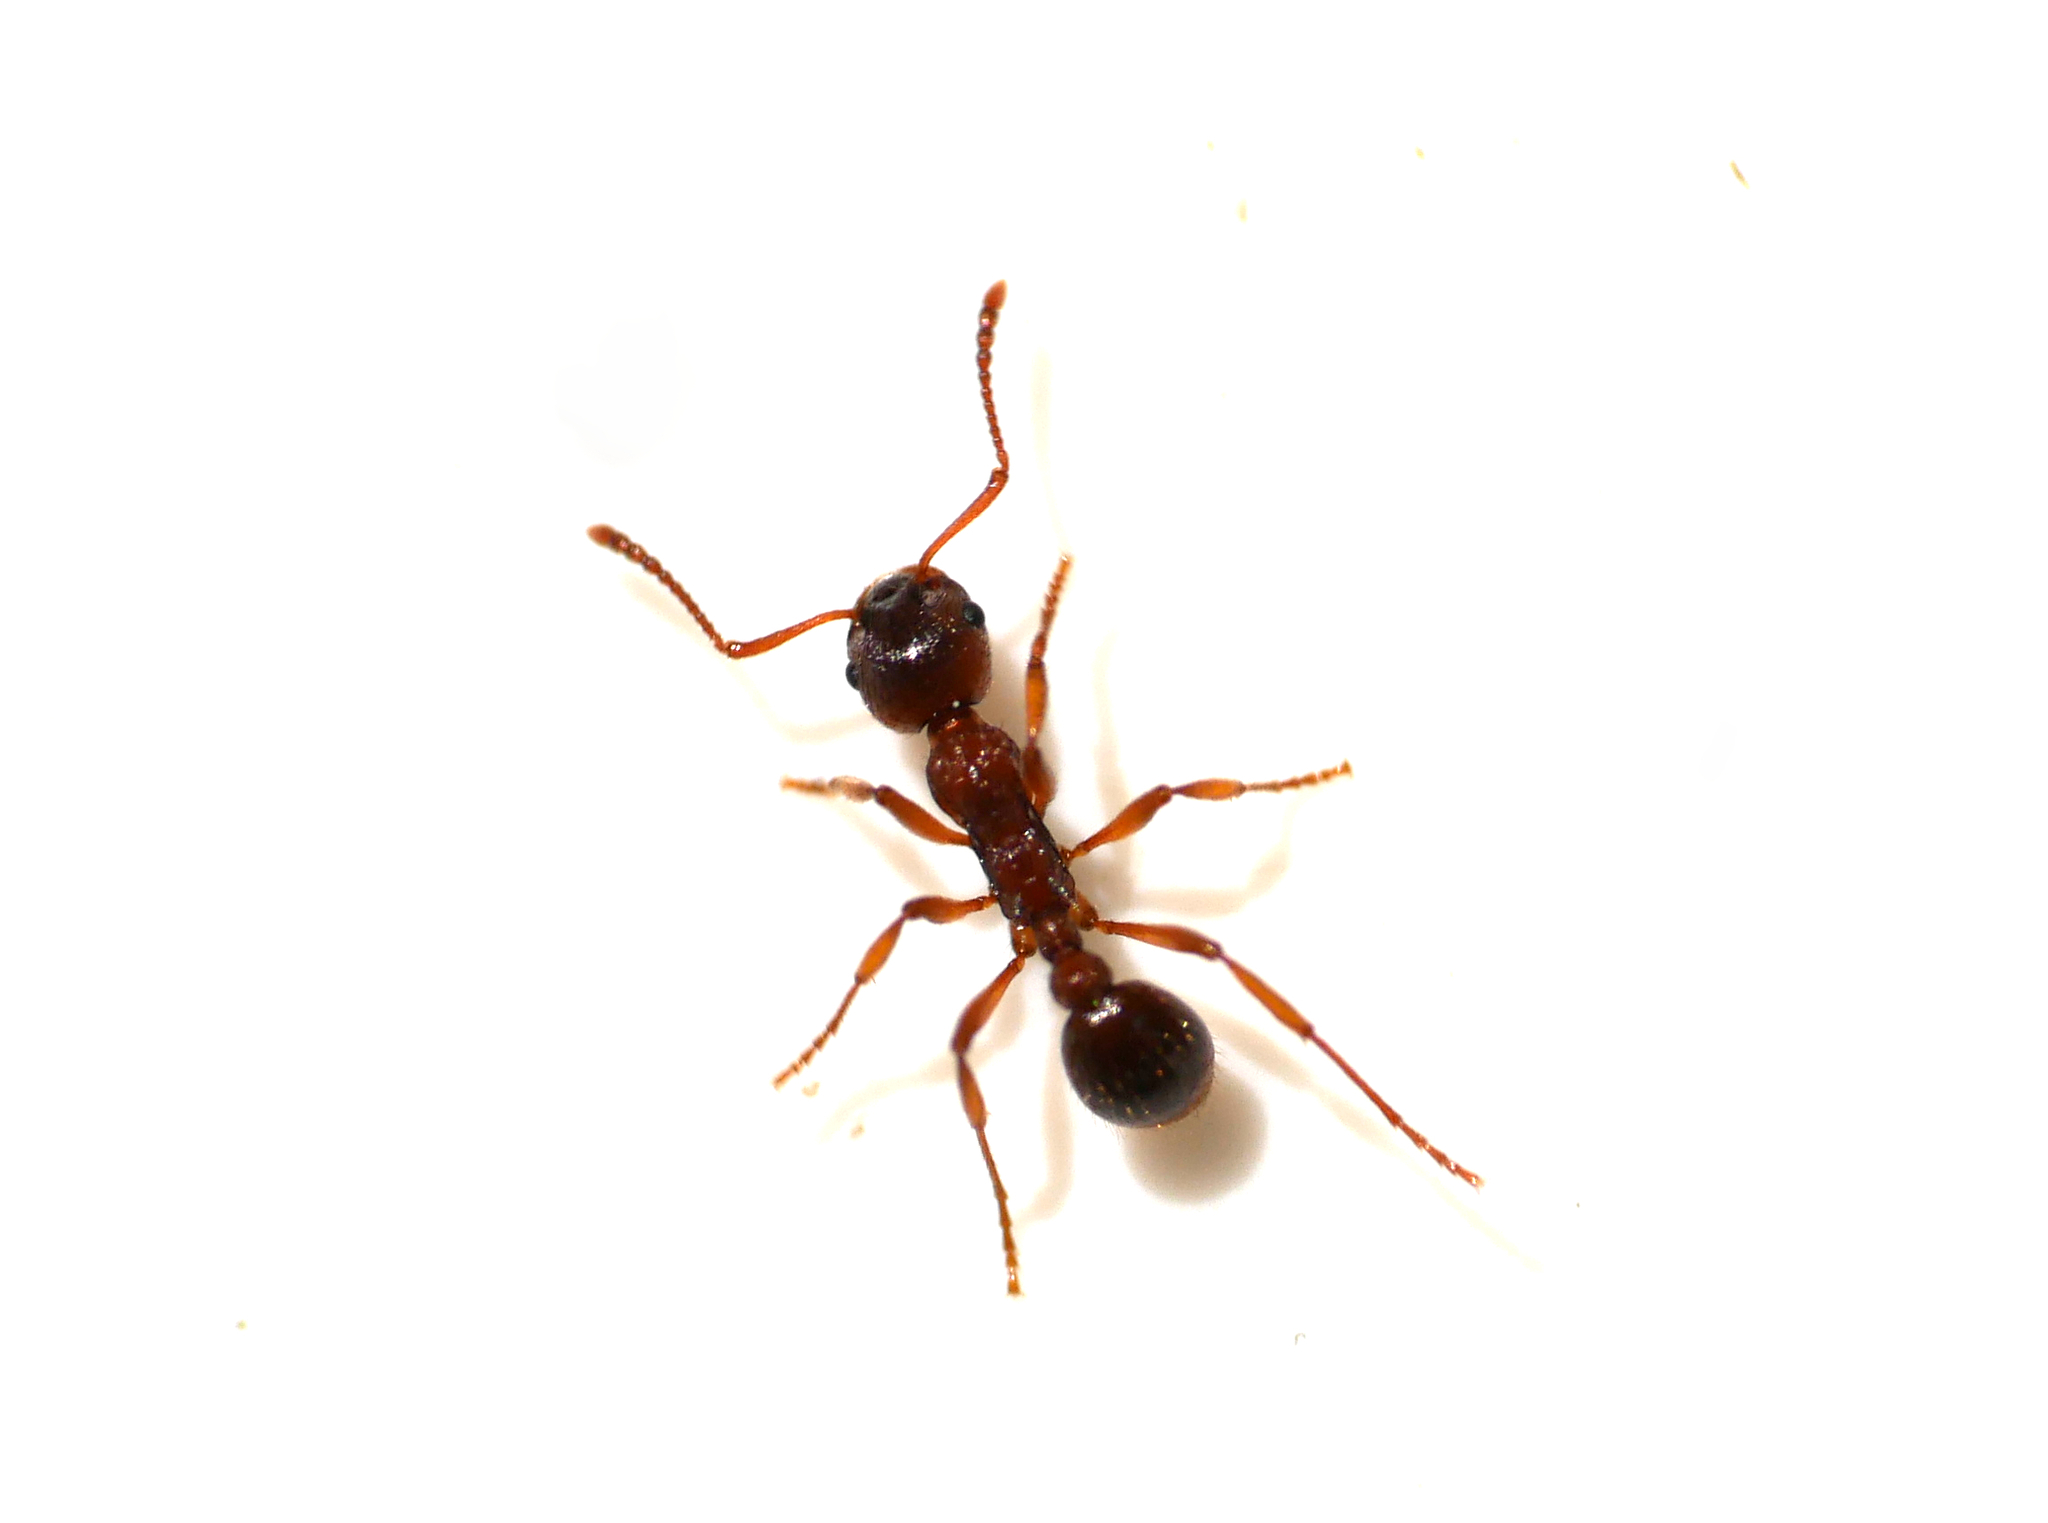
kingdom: Animalia
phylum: Arthropoda
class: Insecta
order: Hymenoptera
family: Formicidae
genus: Myrmica
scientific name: Myrmica rubra
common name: European fire ant
